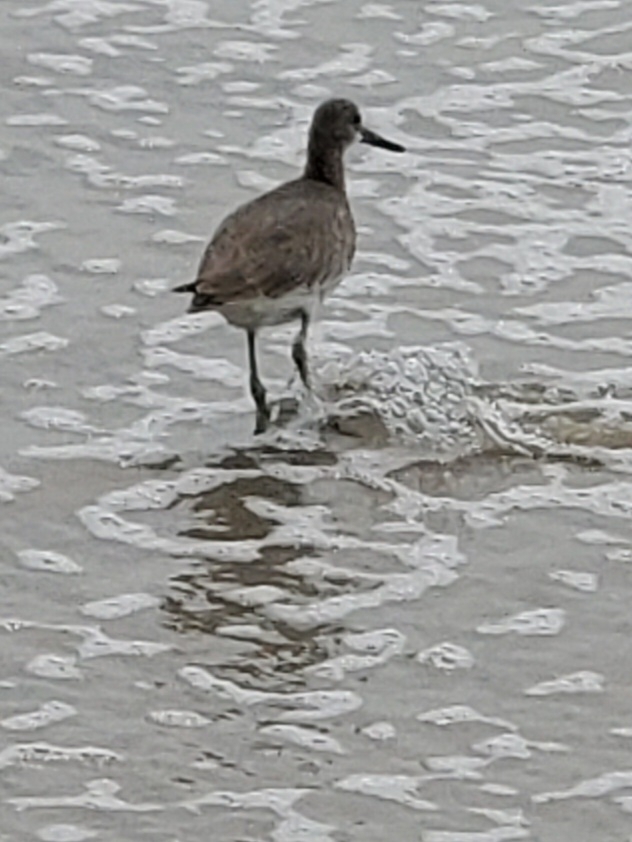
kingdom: Animalia
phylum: Chordata
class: Aves
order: Charadriiformes
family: Scolopacidae
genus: Tringa
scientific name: Tringa semipalmata
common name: Willet
